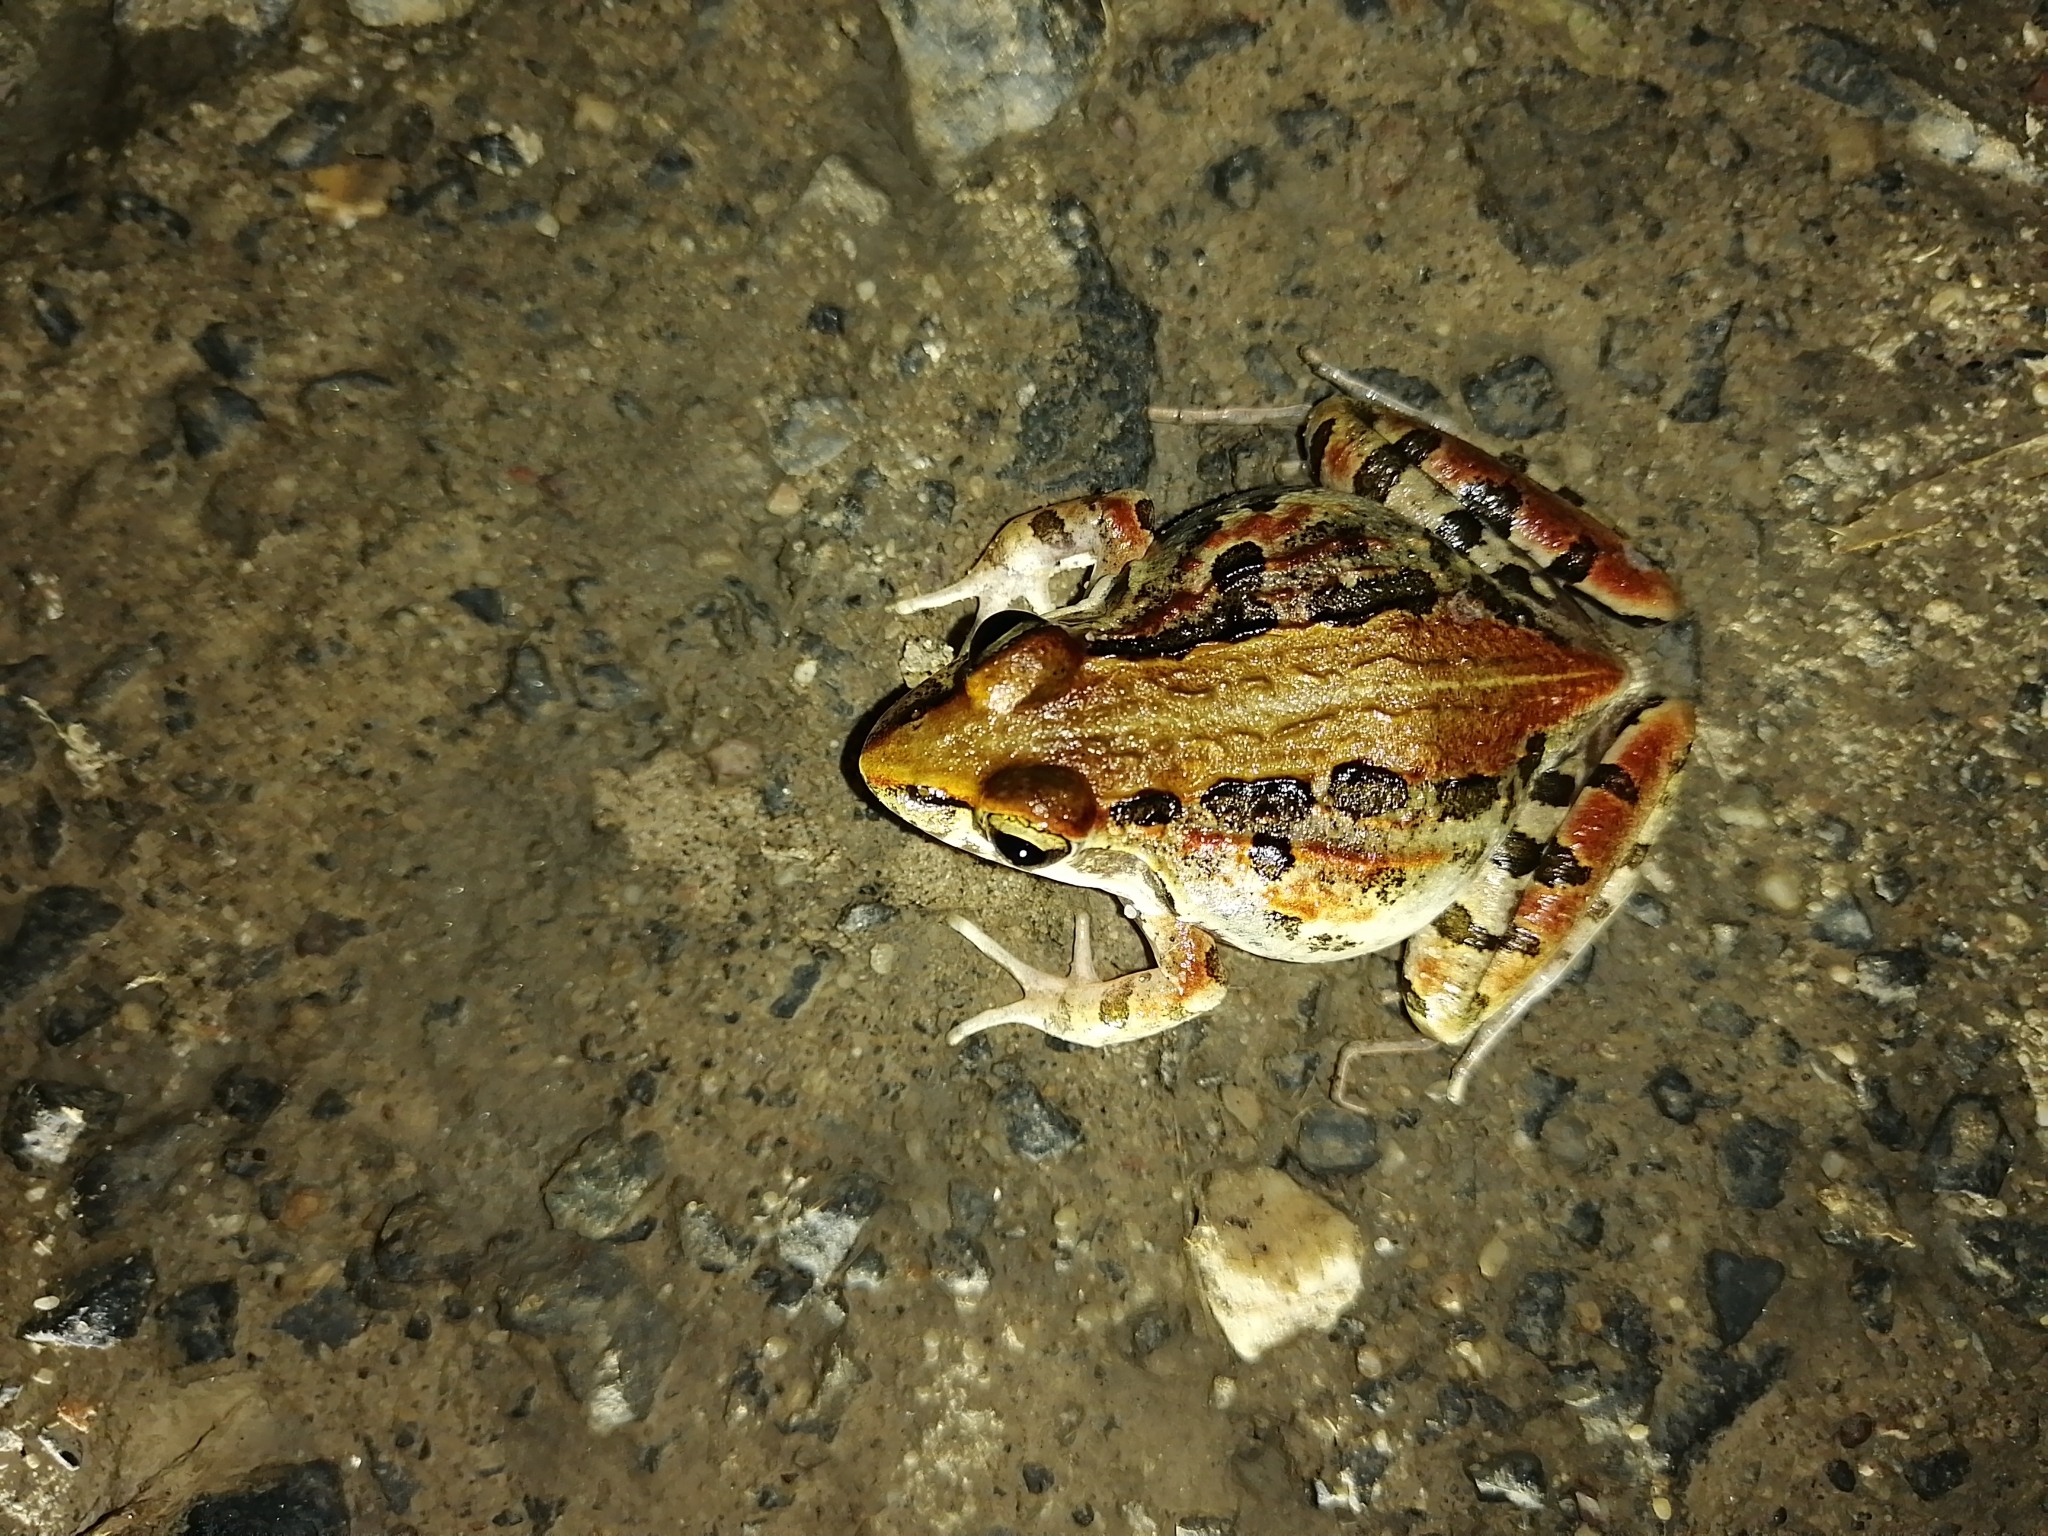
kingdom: Animalia
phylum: Chordata
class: Amphibia
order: Anura
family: Pyxicephalidae
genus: Strongylopus
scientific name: Strongylopus grayii
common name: Gray's stream frog
